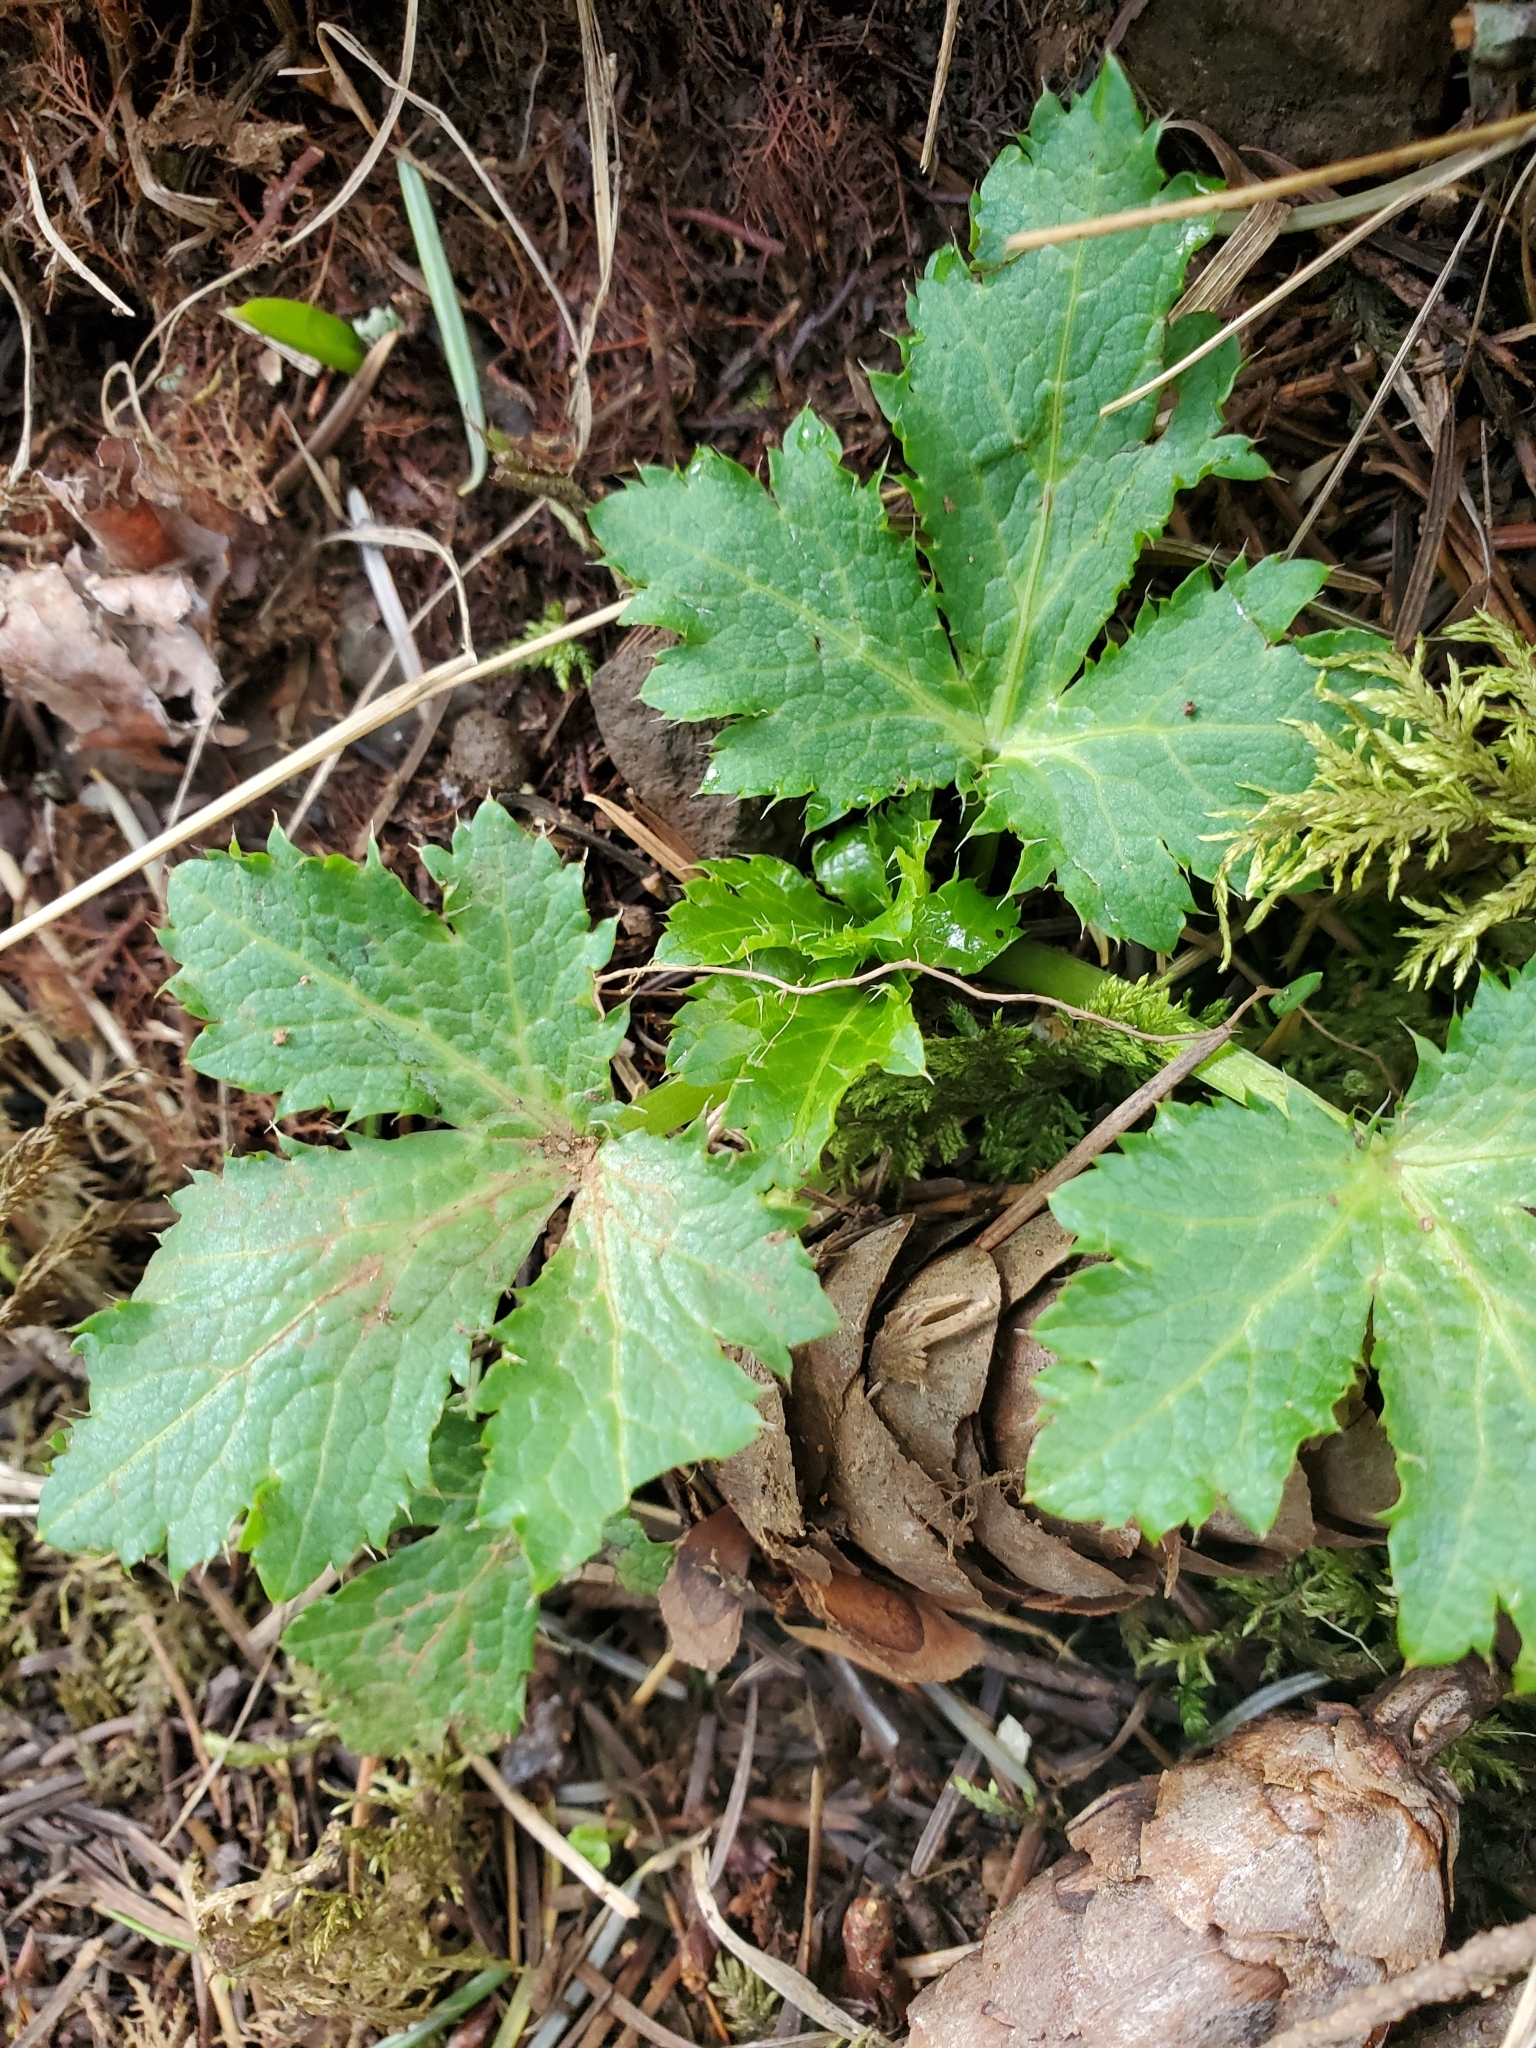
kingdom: Plantae
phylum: Tracheophyta
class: Magnoliopsida
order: Apiales
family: Apiaceae
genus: Sanicula
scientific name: Sanicula crassicaulis
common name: Western snakeroot
